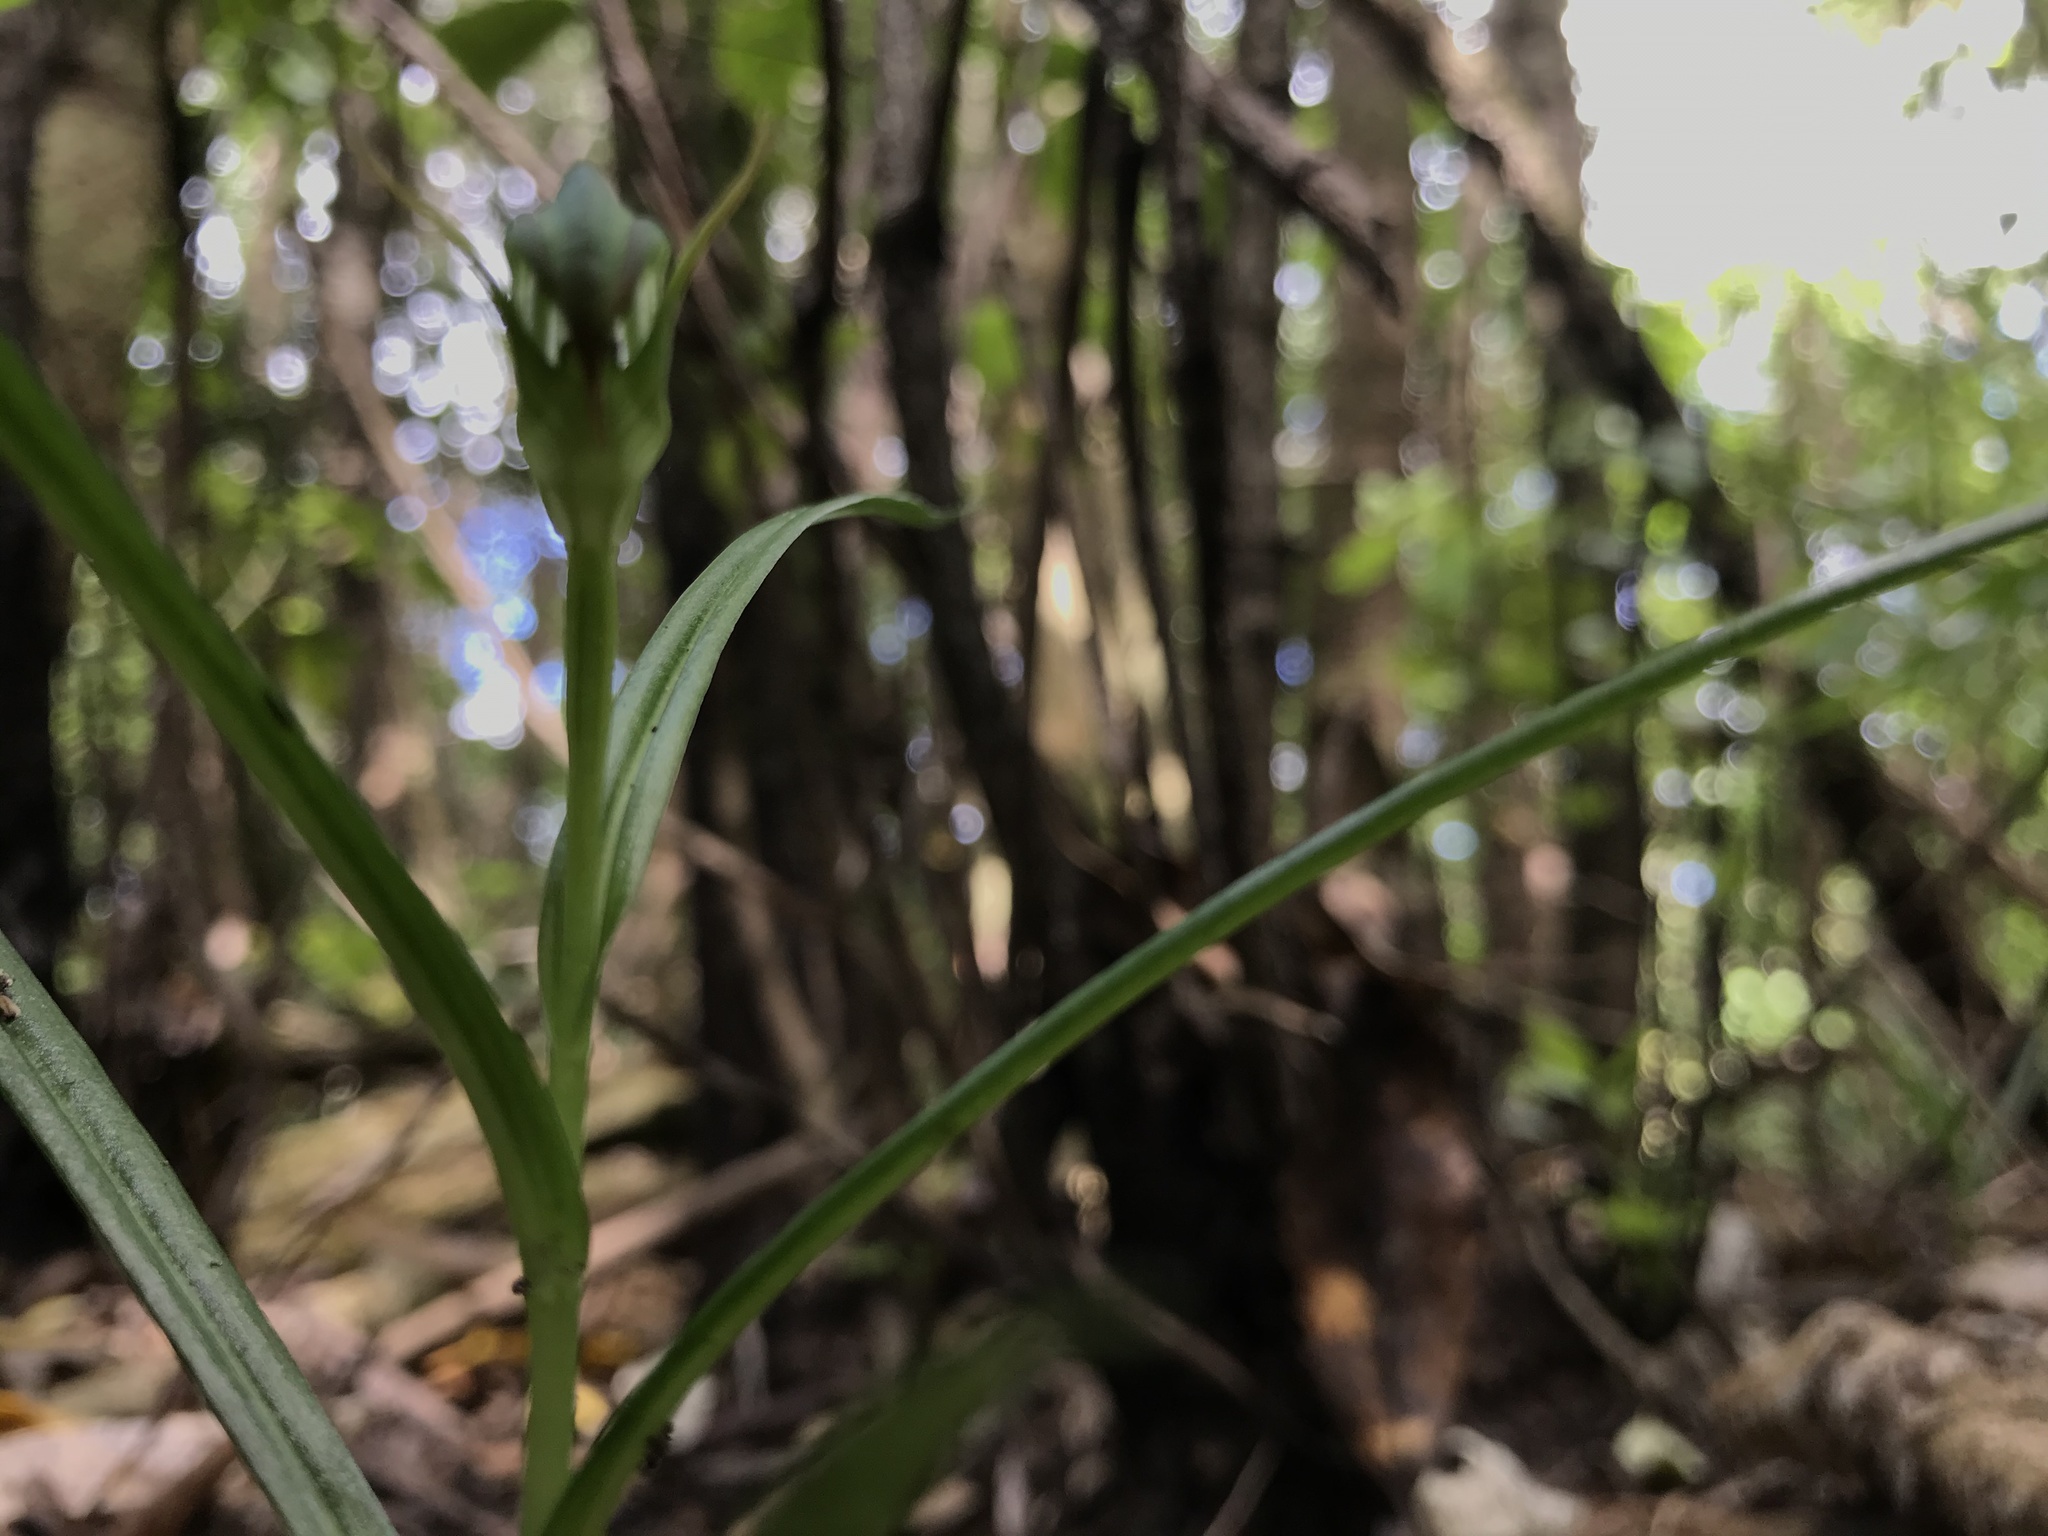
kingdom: Plantae
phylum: Tracheophyta
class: Liliopsida
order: Asparagales
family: Orchidaceae
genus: Pterostylis
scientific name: Pterostylis graminea
